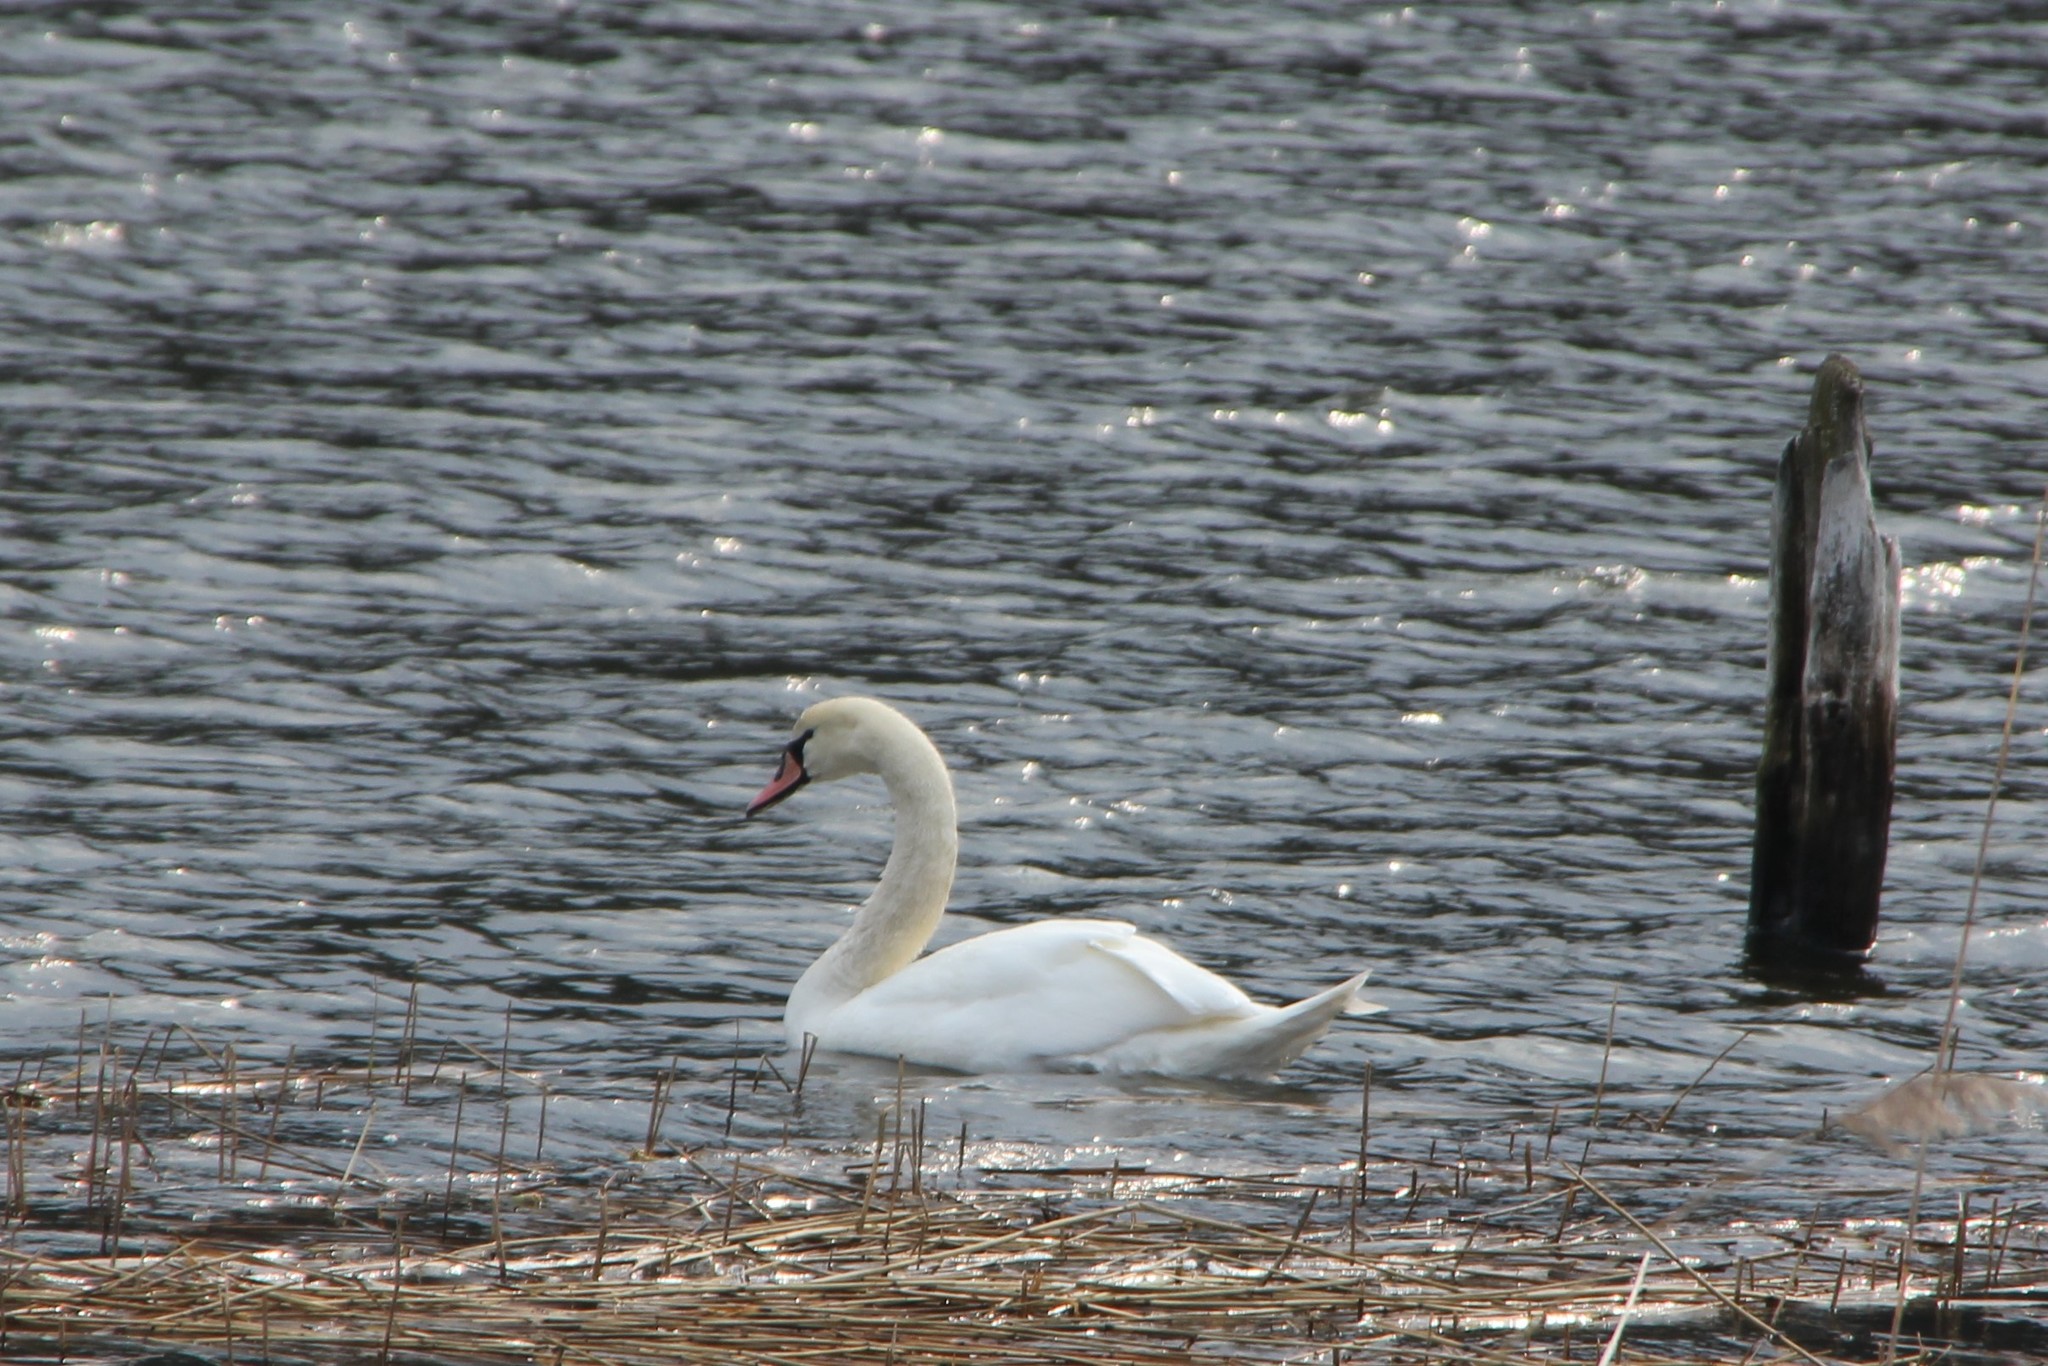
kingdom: Animalia
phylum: Chordata
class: Aves
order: Anseriformes
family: Anatidae
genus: Cygnus
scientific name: Cygnus olor
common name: Mute swan
